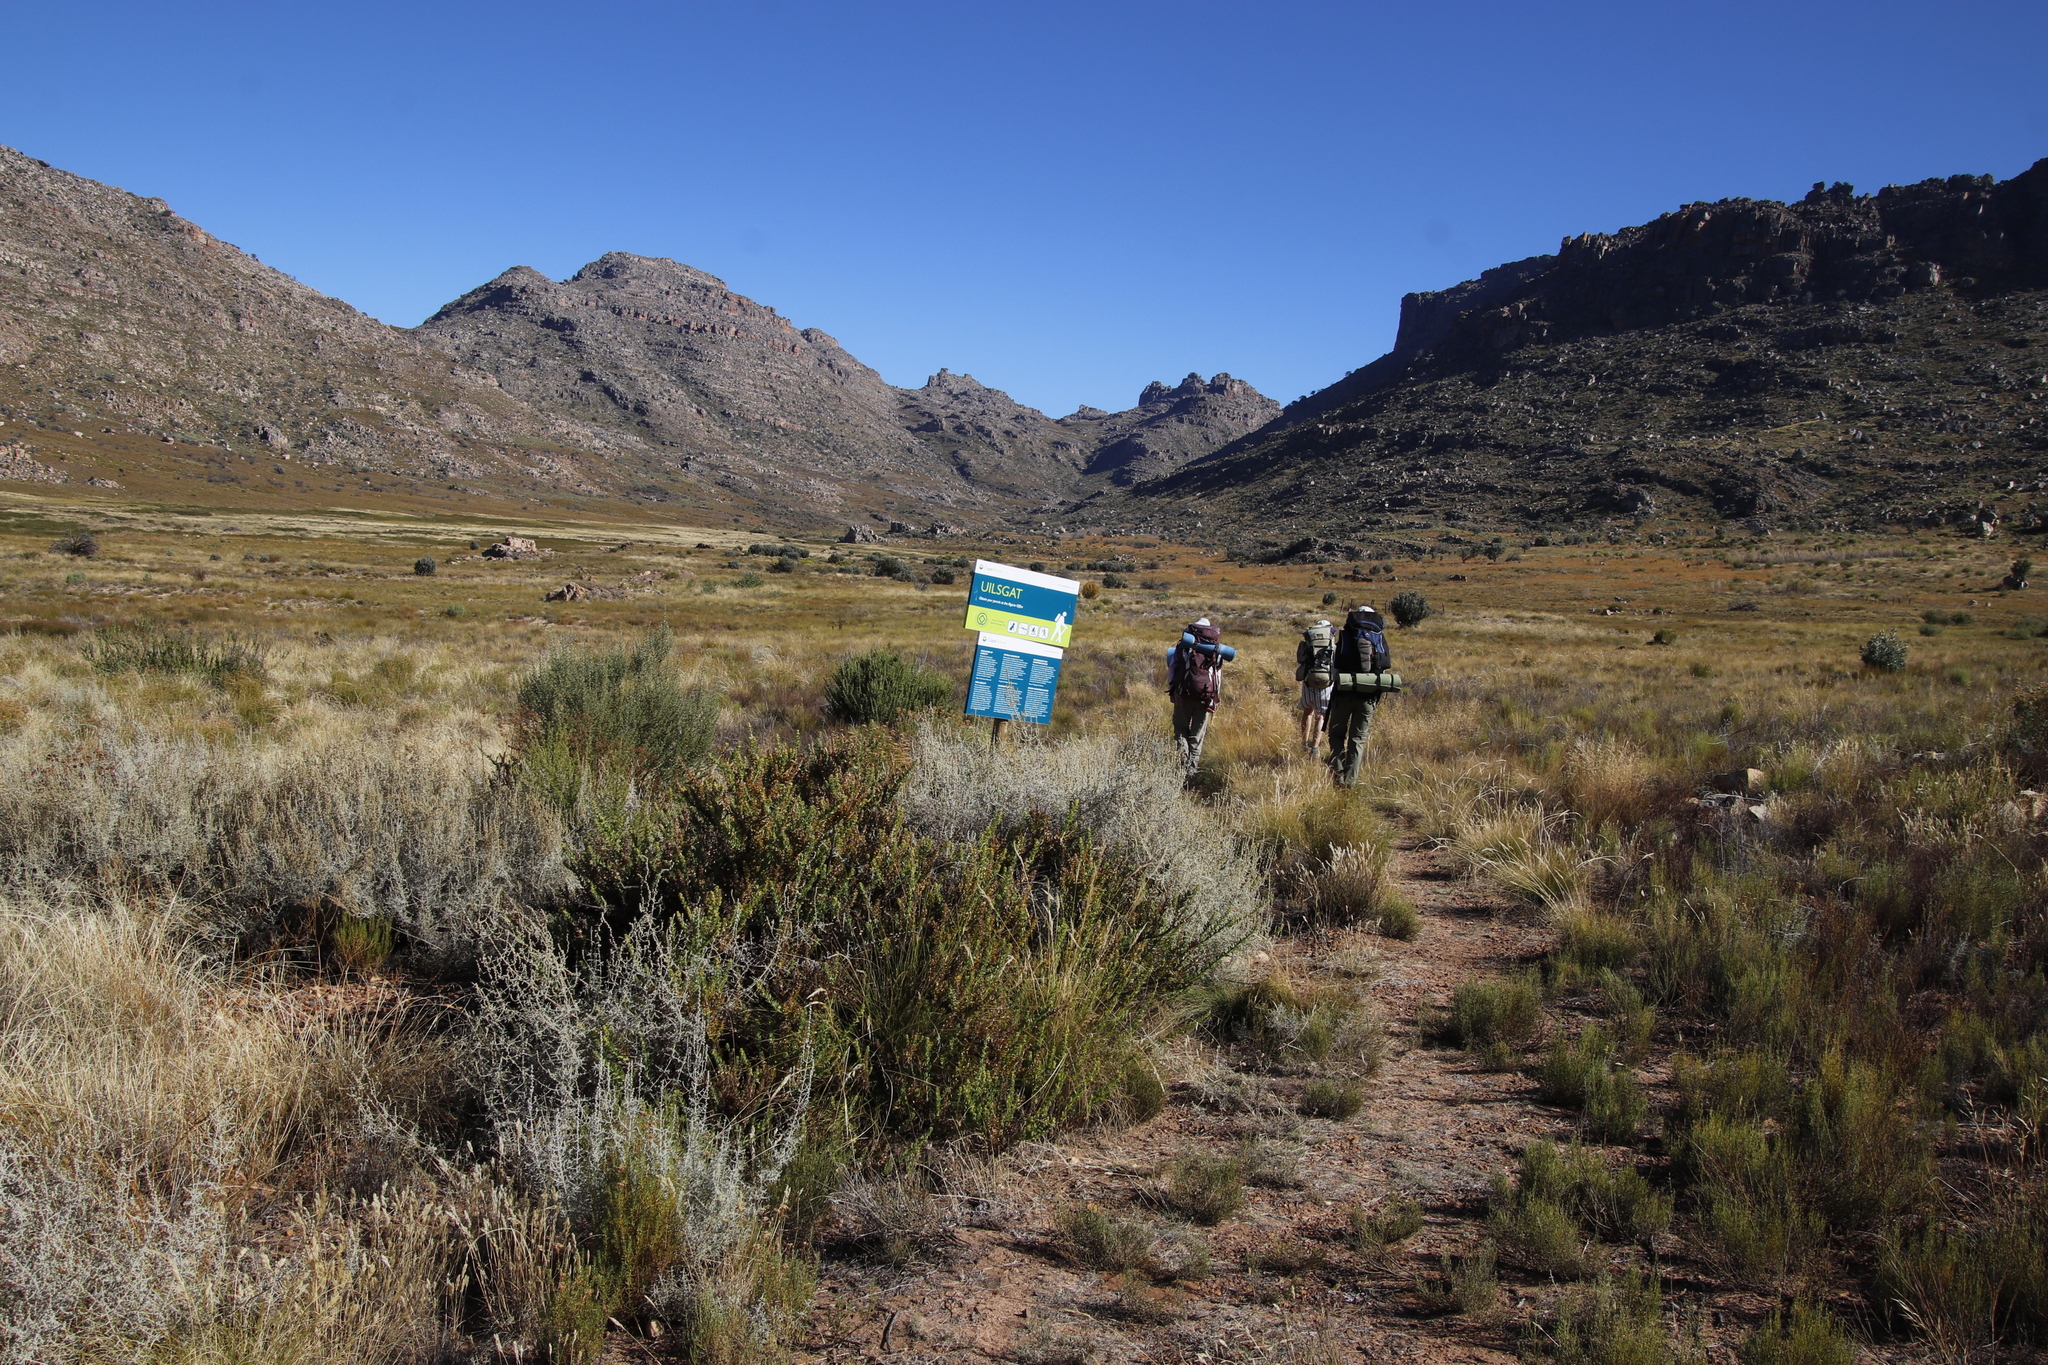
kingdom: Plantae
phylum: Tracheophyta
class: Magnoliopsida
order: Lamiales
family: Scrophulariaceae
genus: Oftia
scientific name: Oftia africana
